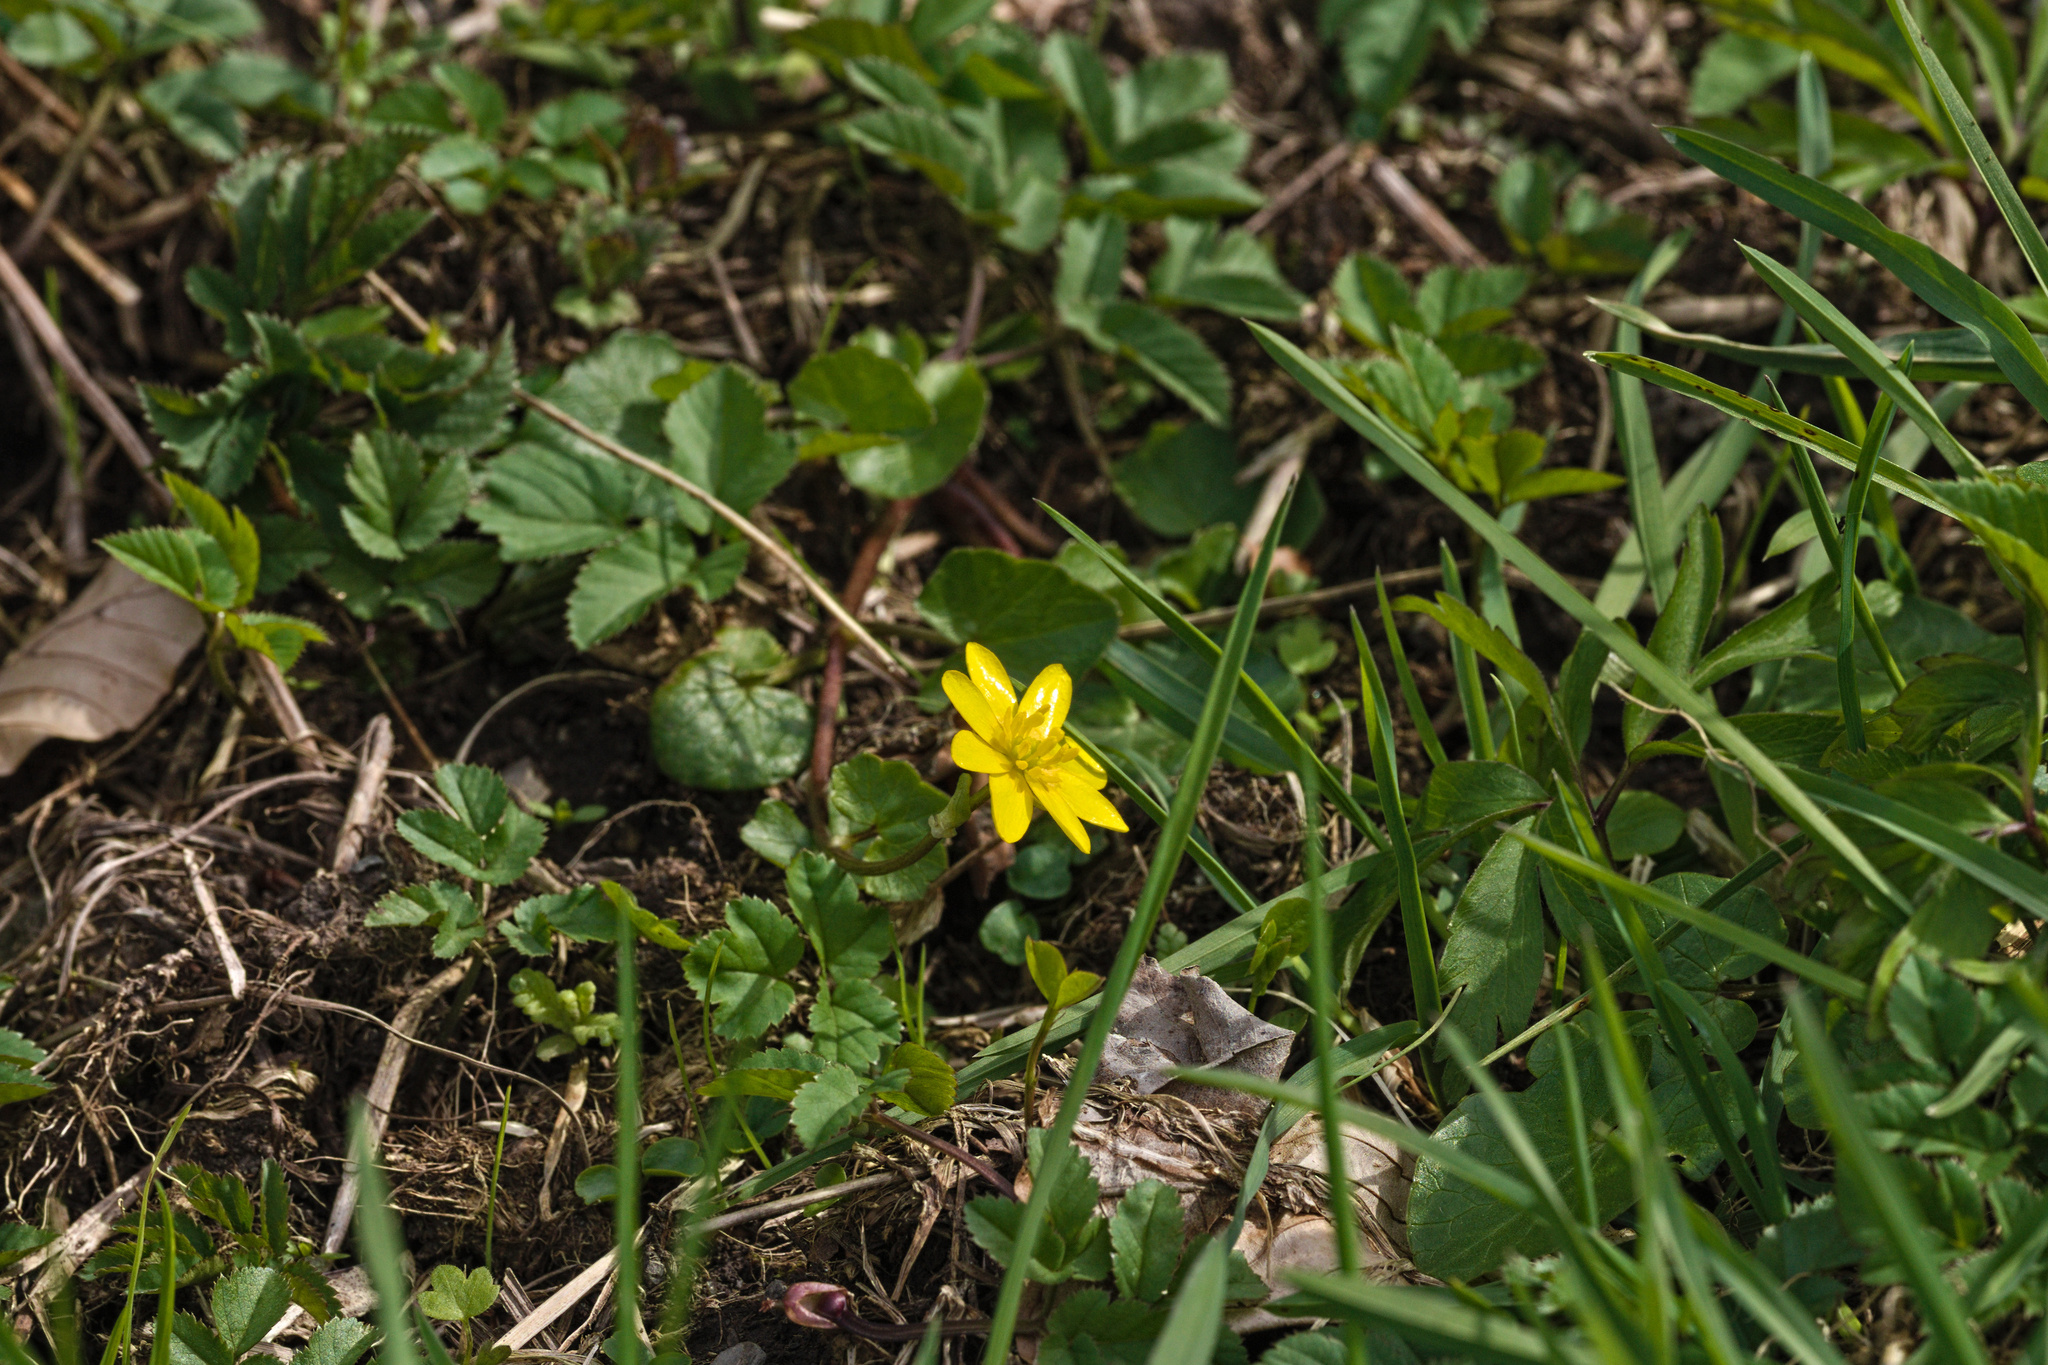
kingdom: Plantae
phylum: Tracheophyta
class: Magnoliopsida
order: Ranunculales
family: Ranunculaceae
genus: Ficaria
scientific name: Ficaria verna
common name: Lesser celandine
